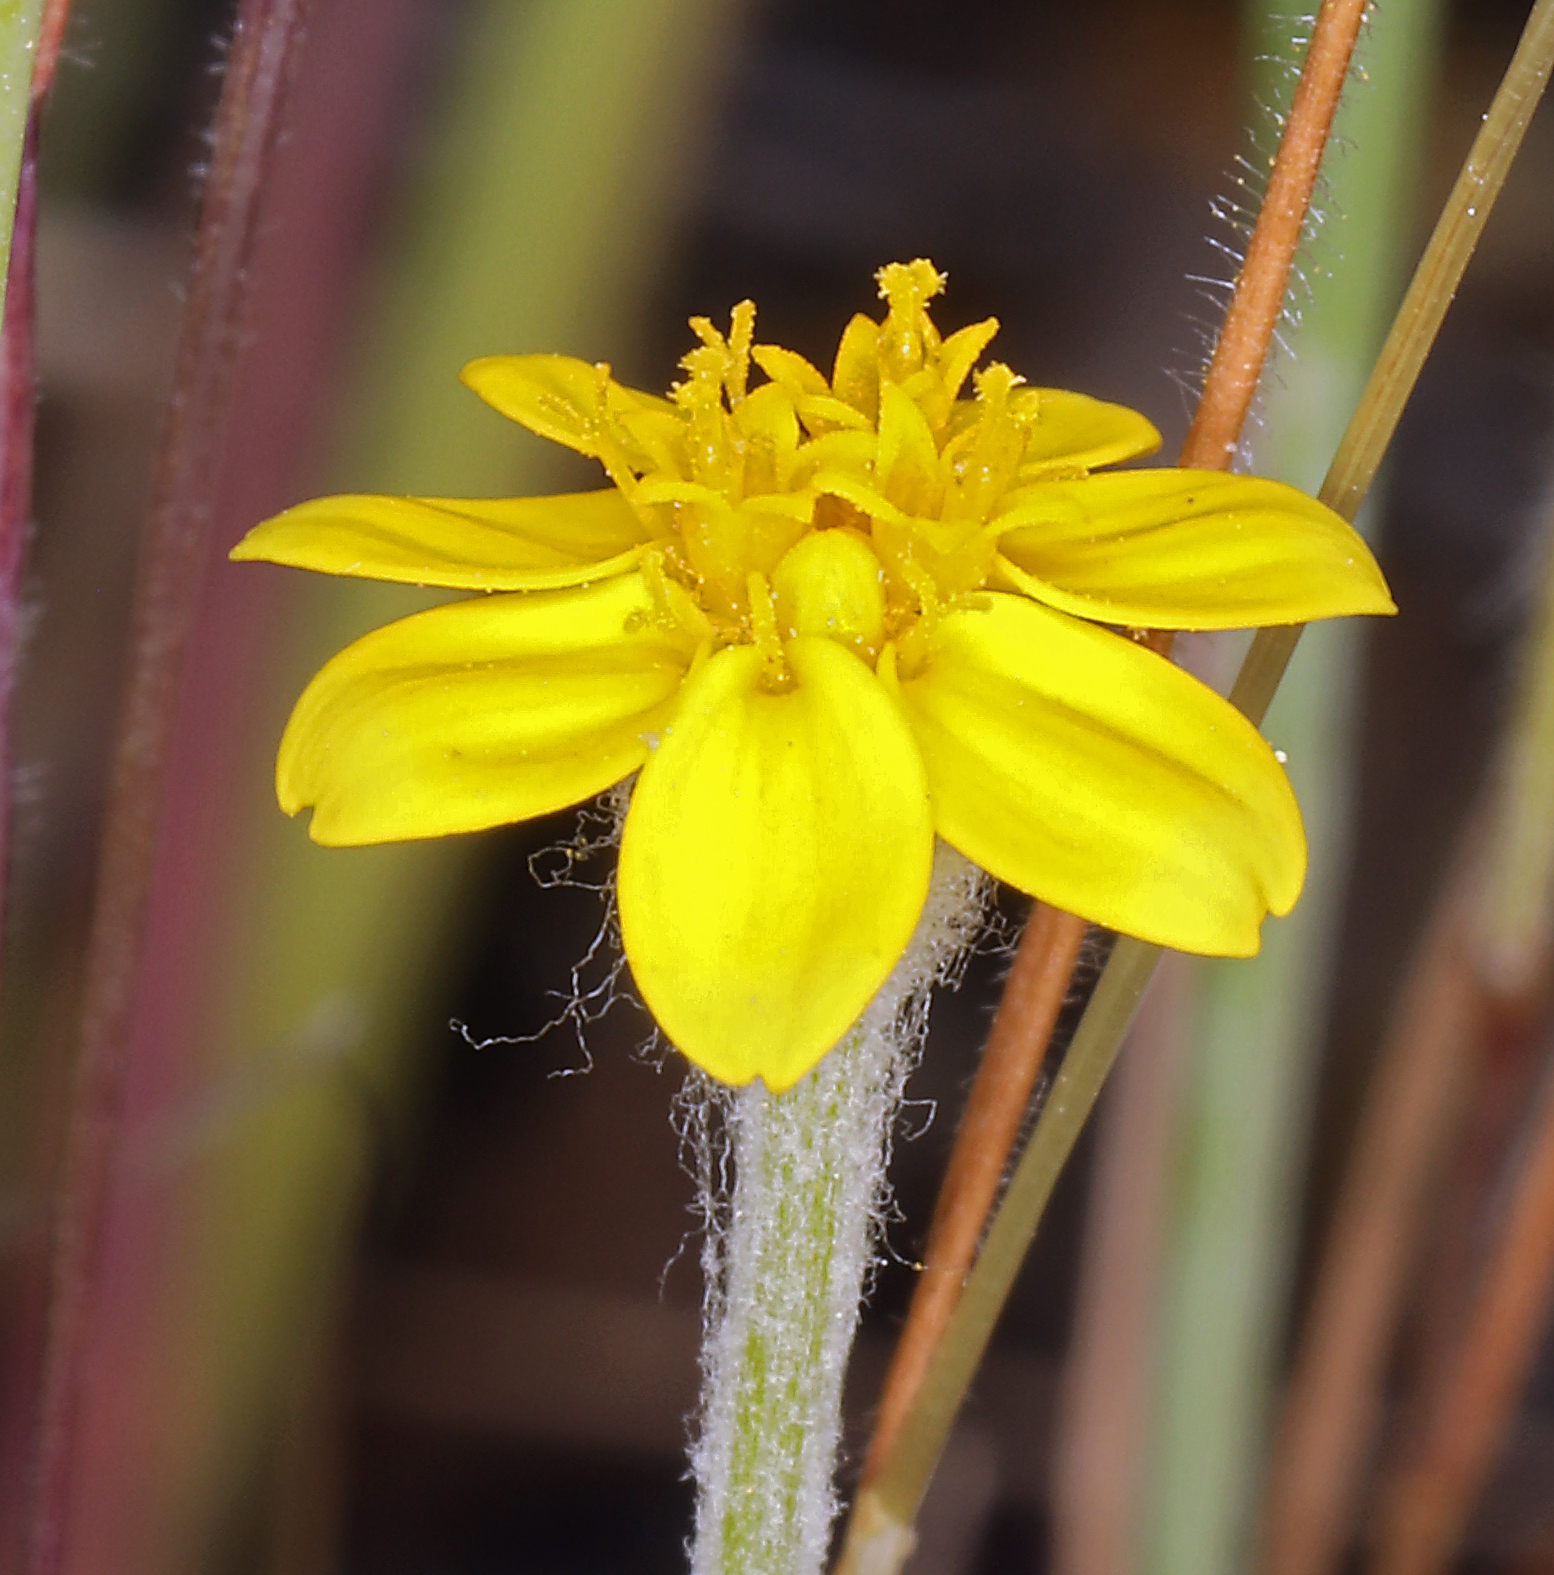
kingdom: Plantae
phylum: Tracheophyta
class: Magnoliopsida
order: Asterales
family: Asteraceae
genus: Pseudobahia
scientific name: Pseudobahia bahiifolia
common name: Hartweg's golden sunburst
